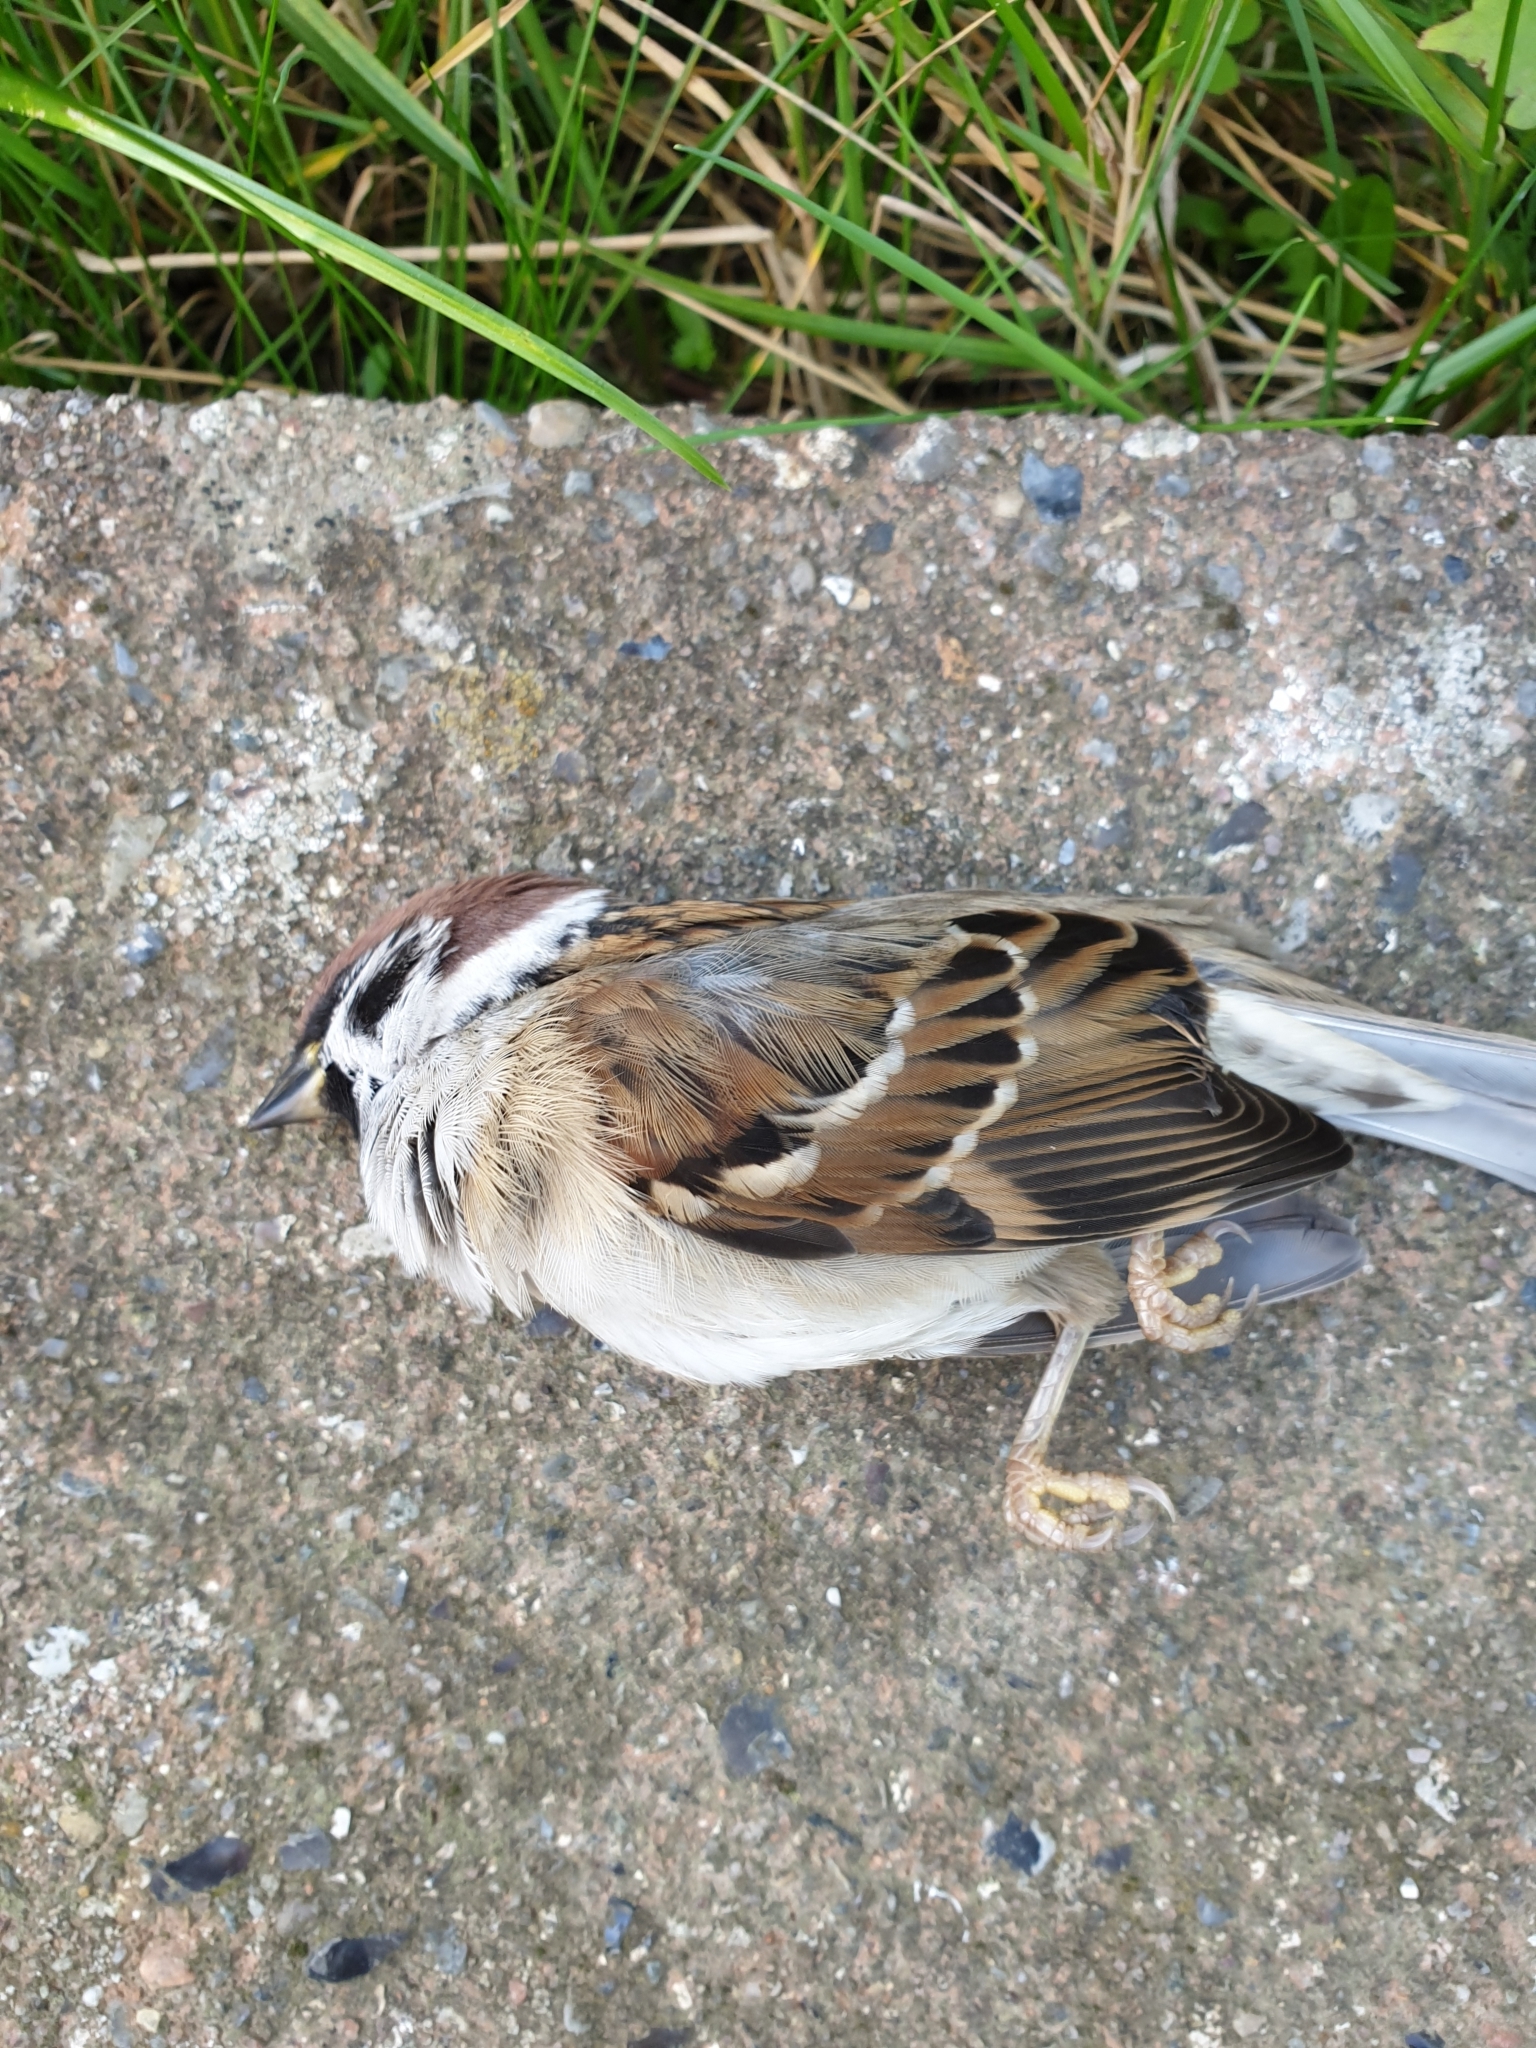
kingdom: Animalia
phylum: Chordata
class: Aves
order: Passeriformes
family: Passeridae
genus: Passer
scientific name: Passer montanus
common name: Eurasian tree sparrow
